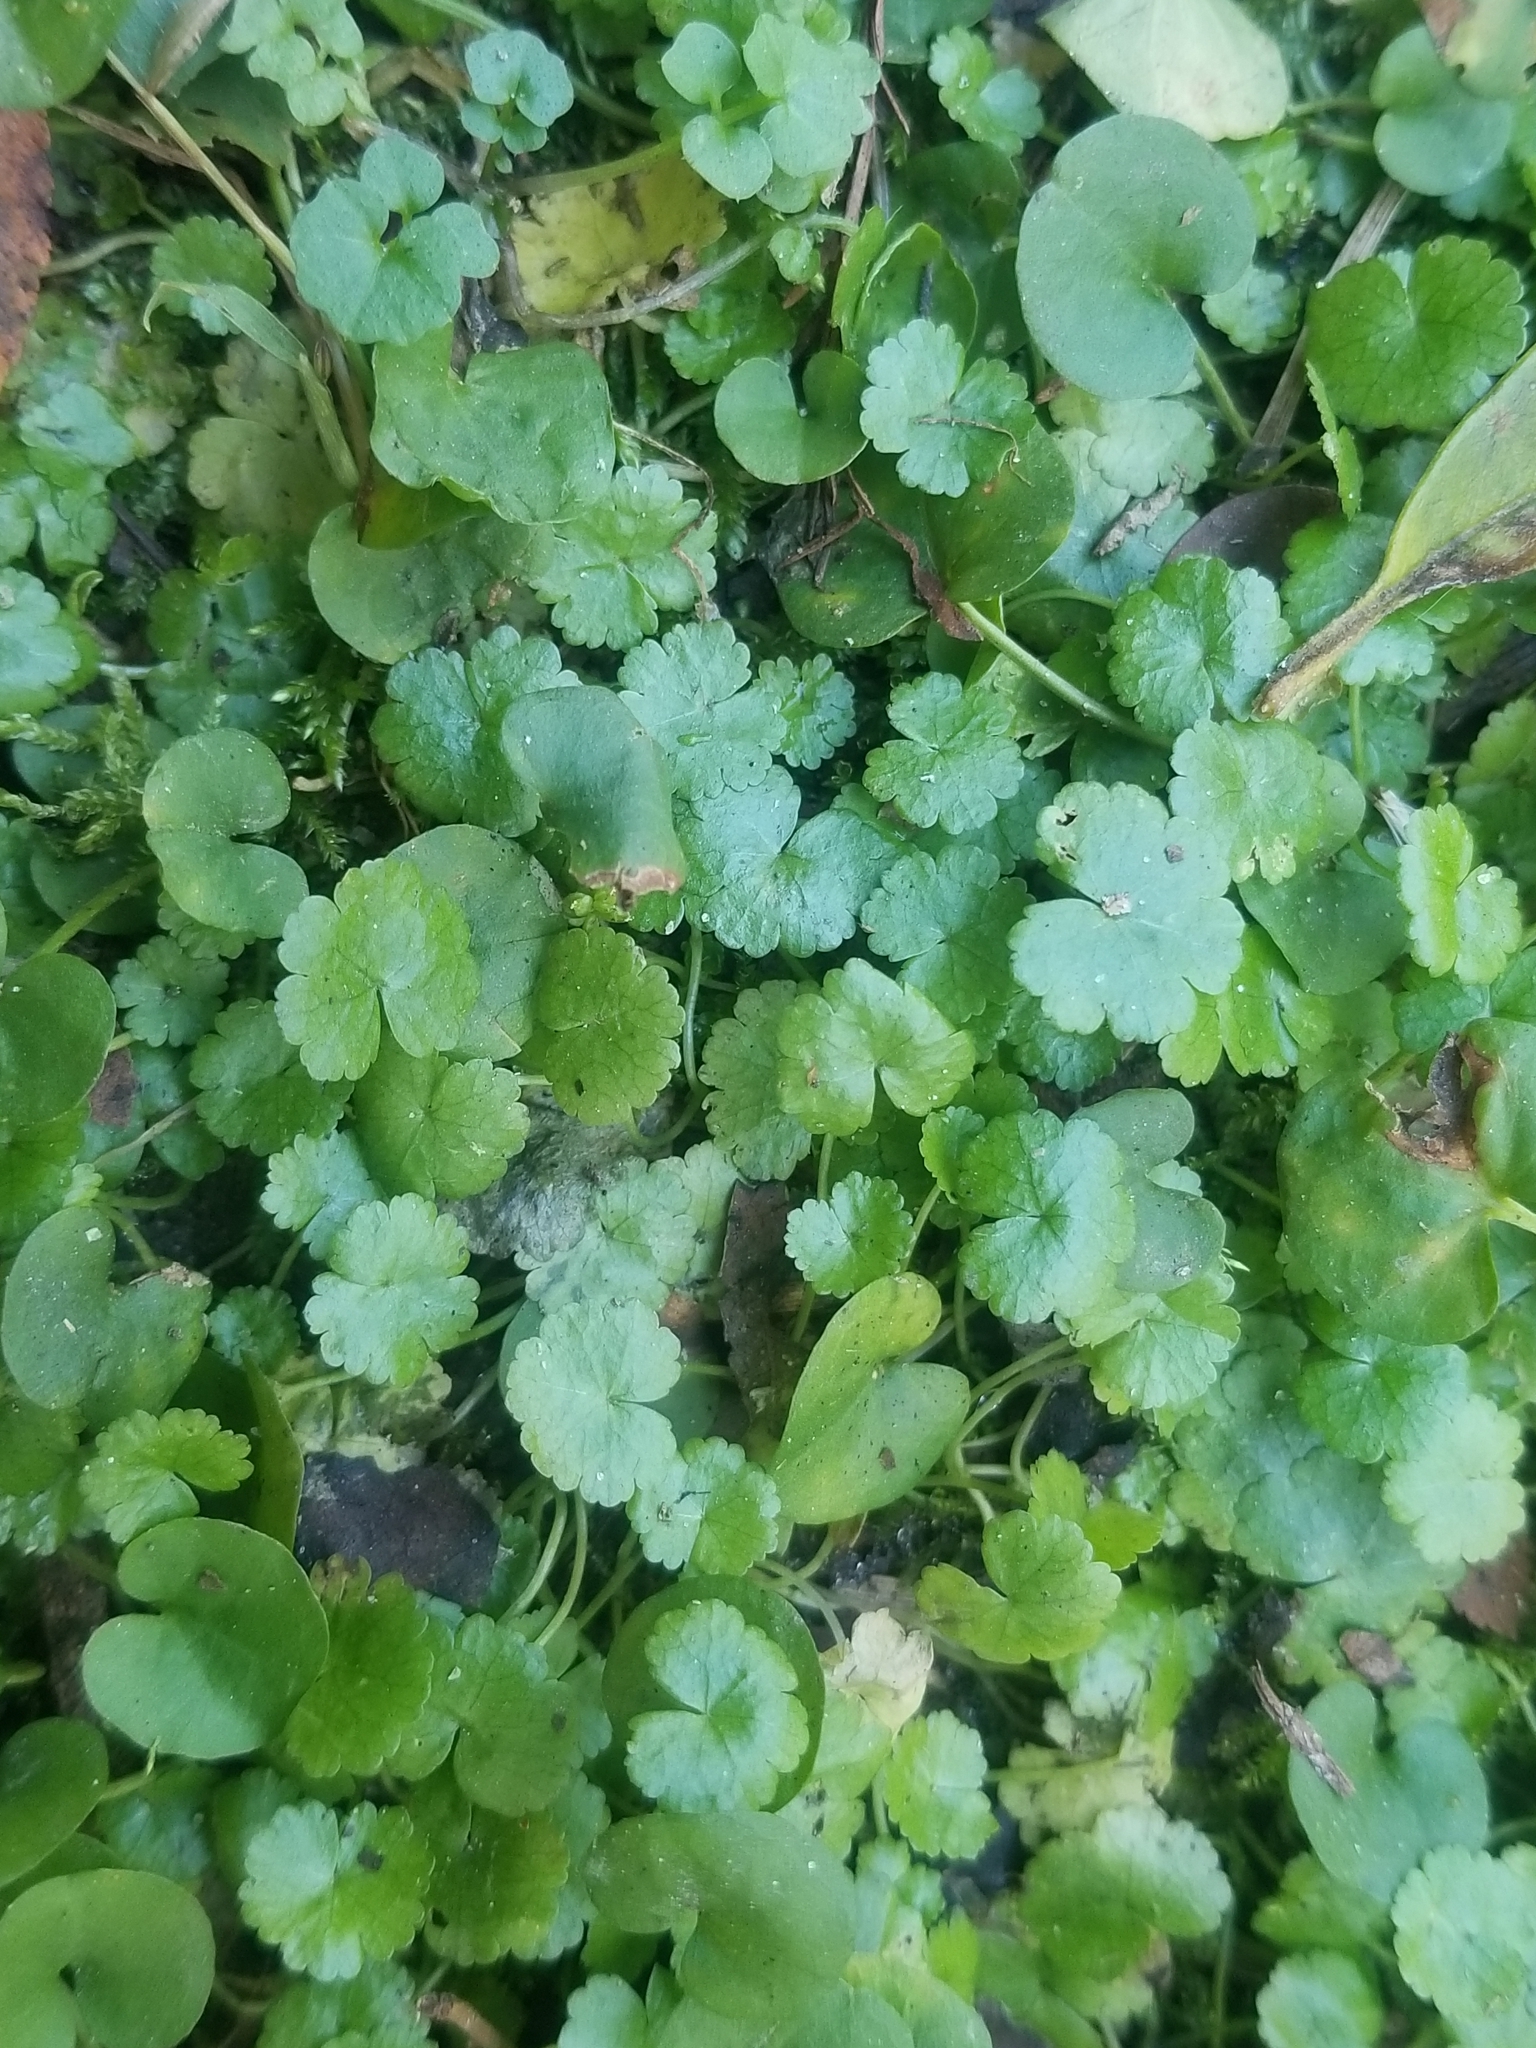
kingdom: Plantae
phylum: Tracheophyta
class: Magnoliopsida
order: Apiales
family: Araliaceae
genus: Hydrocotyle
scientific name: Hydrocotyle sibthorpioides
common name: Lawn marshpennywort
